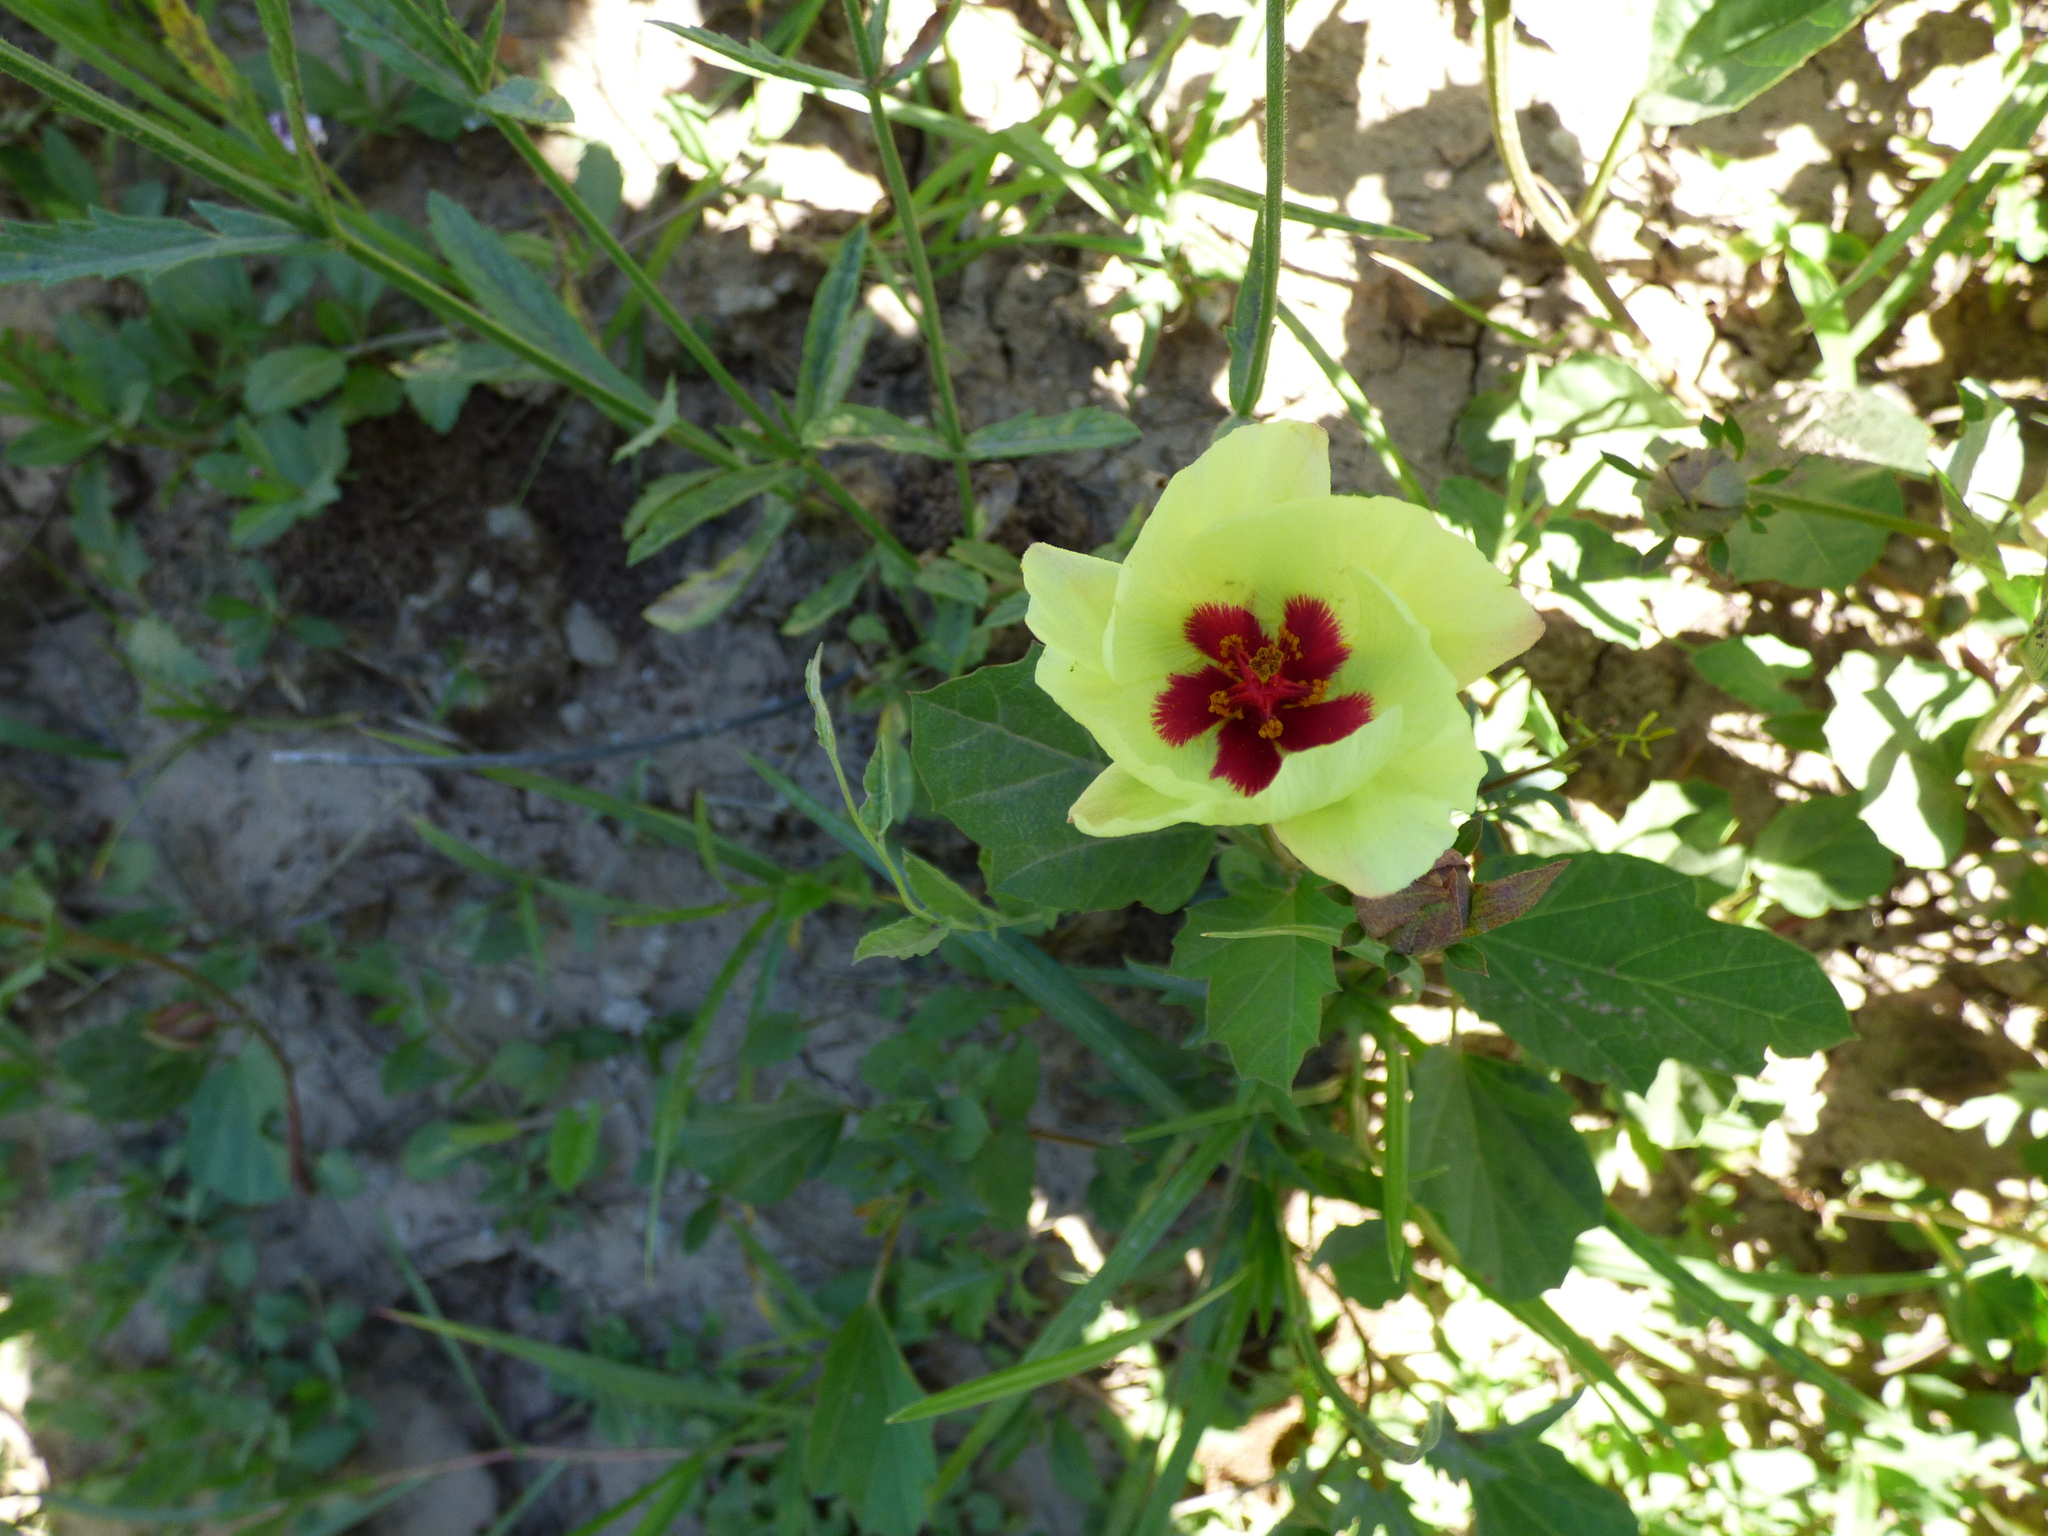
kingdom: Plantae
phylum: Tracheophyta
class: Magnoliopsida
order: Malvales
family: Malvaceae
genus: Cienfuegosia
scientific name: Cienfuegosia drummondii
